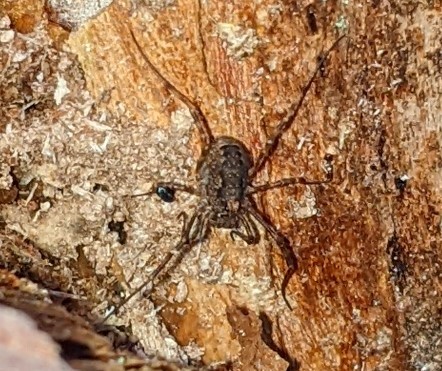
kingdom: Animalia
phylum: Arthropoda
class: Arachnida
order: Opiliones
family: Phalangiidae
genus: Rilaena
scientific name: Rilaena triangularis
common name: Spring harvestman
